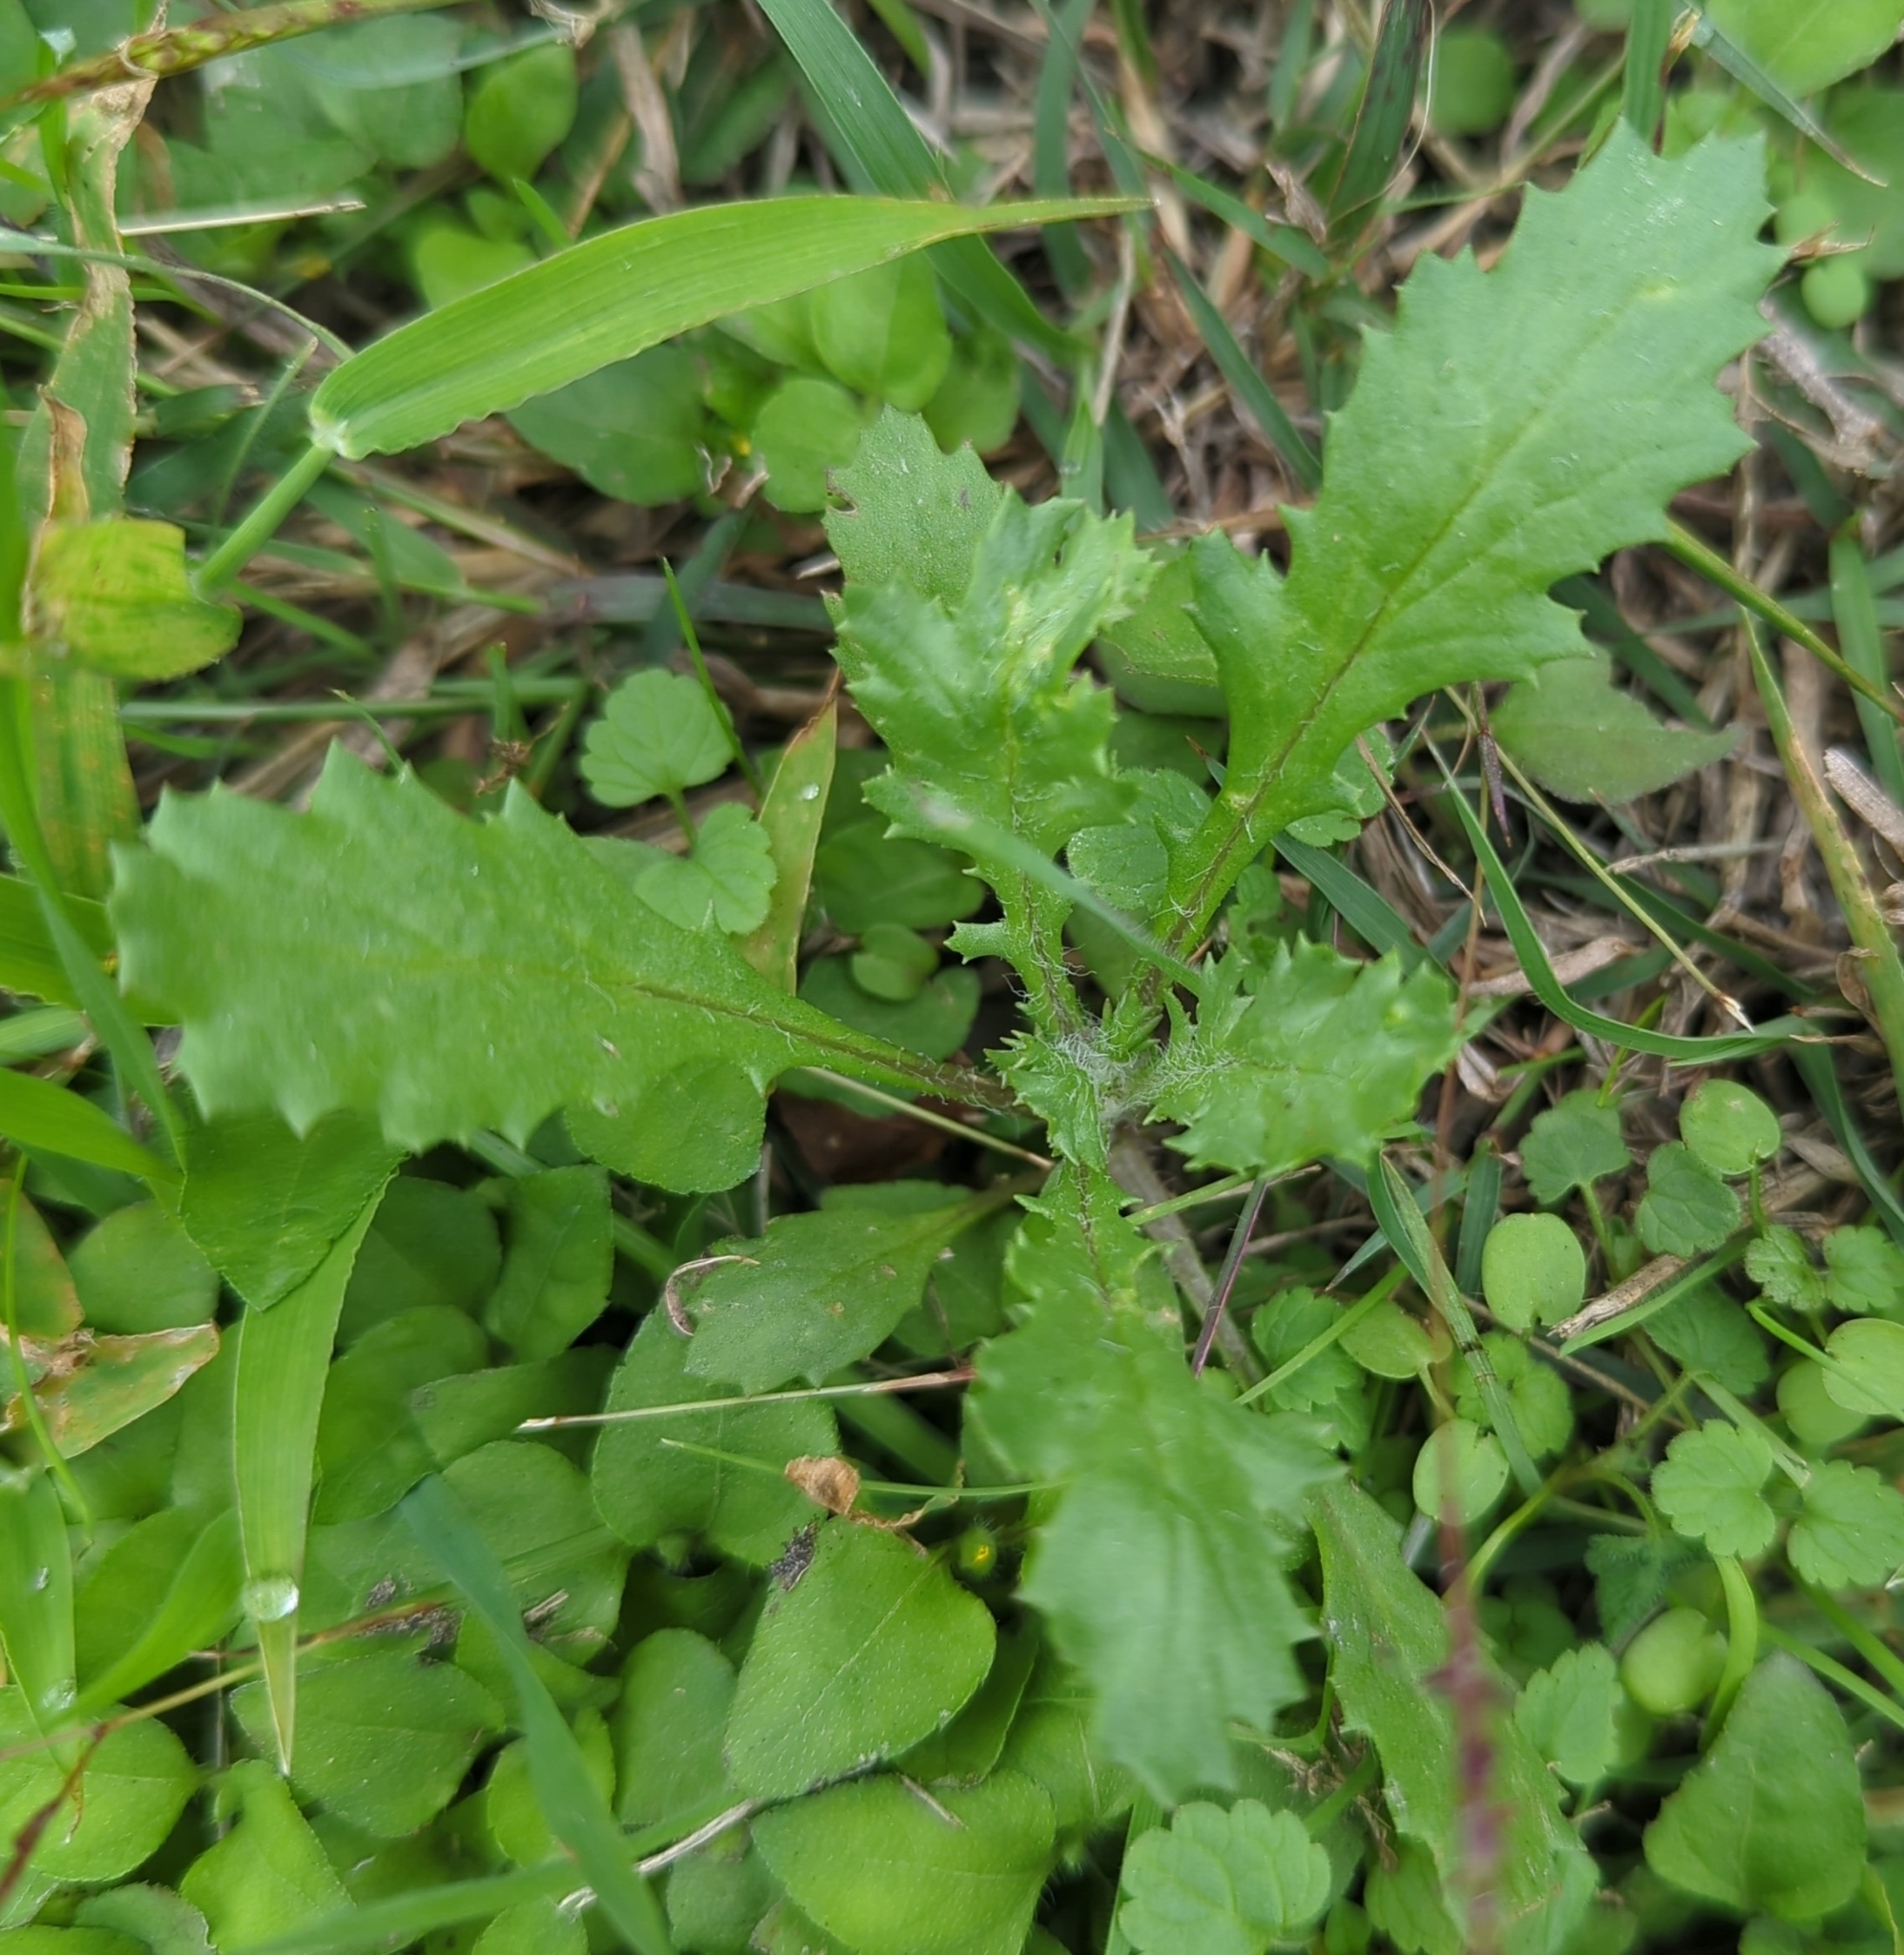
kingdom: Plantae
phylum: Tracheophyta
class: Magnoliopsida
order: Asterales
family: Asteraceae
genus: Senecio
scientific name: Senecio vulgaris
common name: Old-man-in-the-spring
